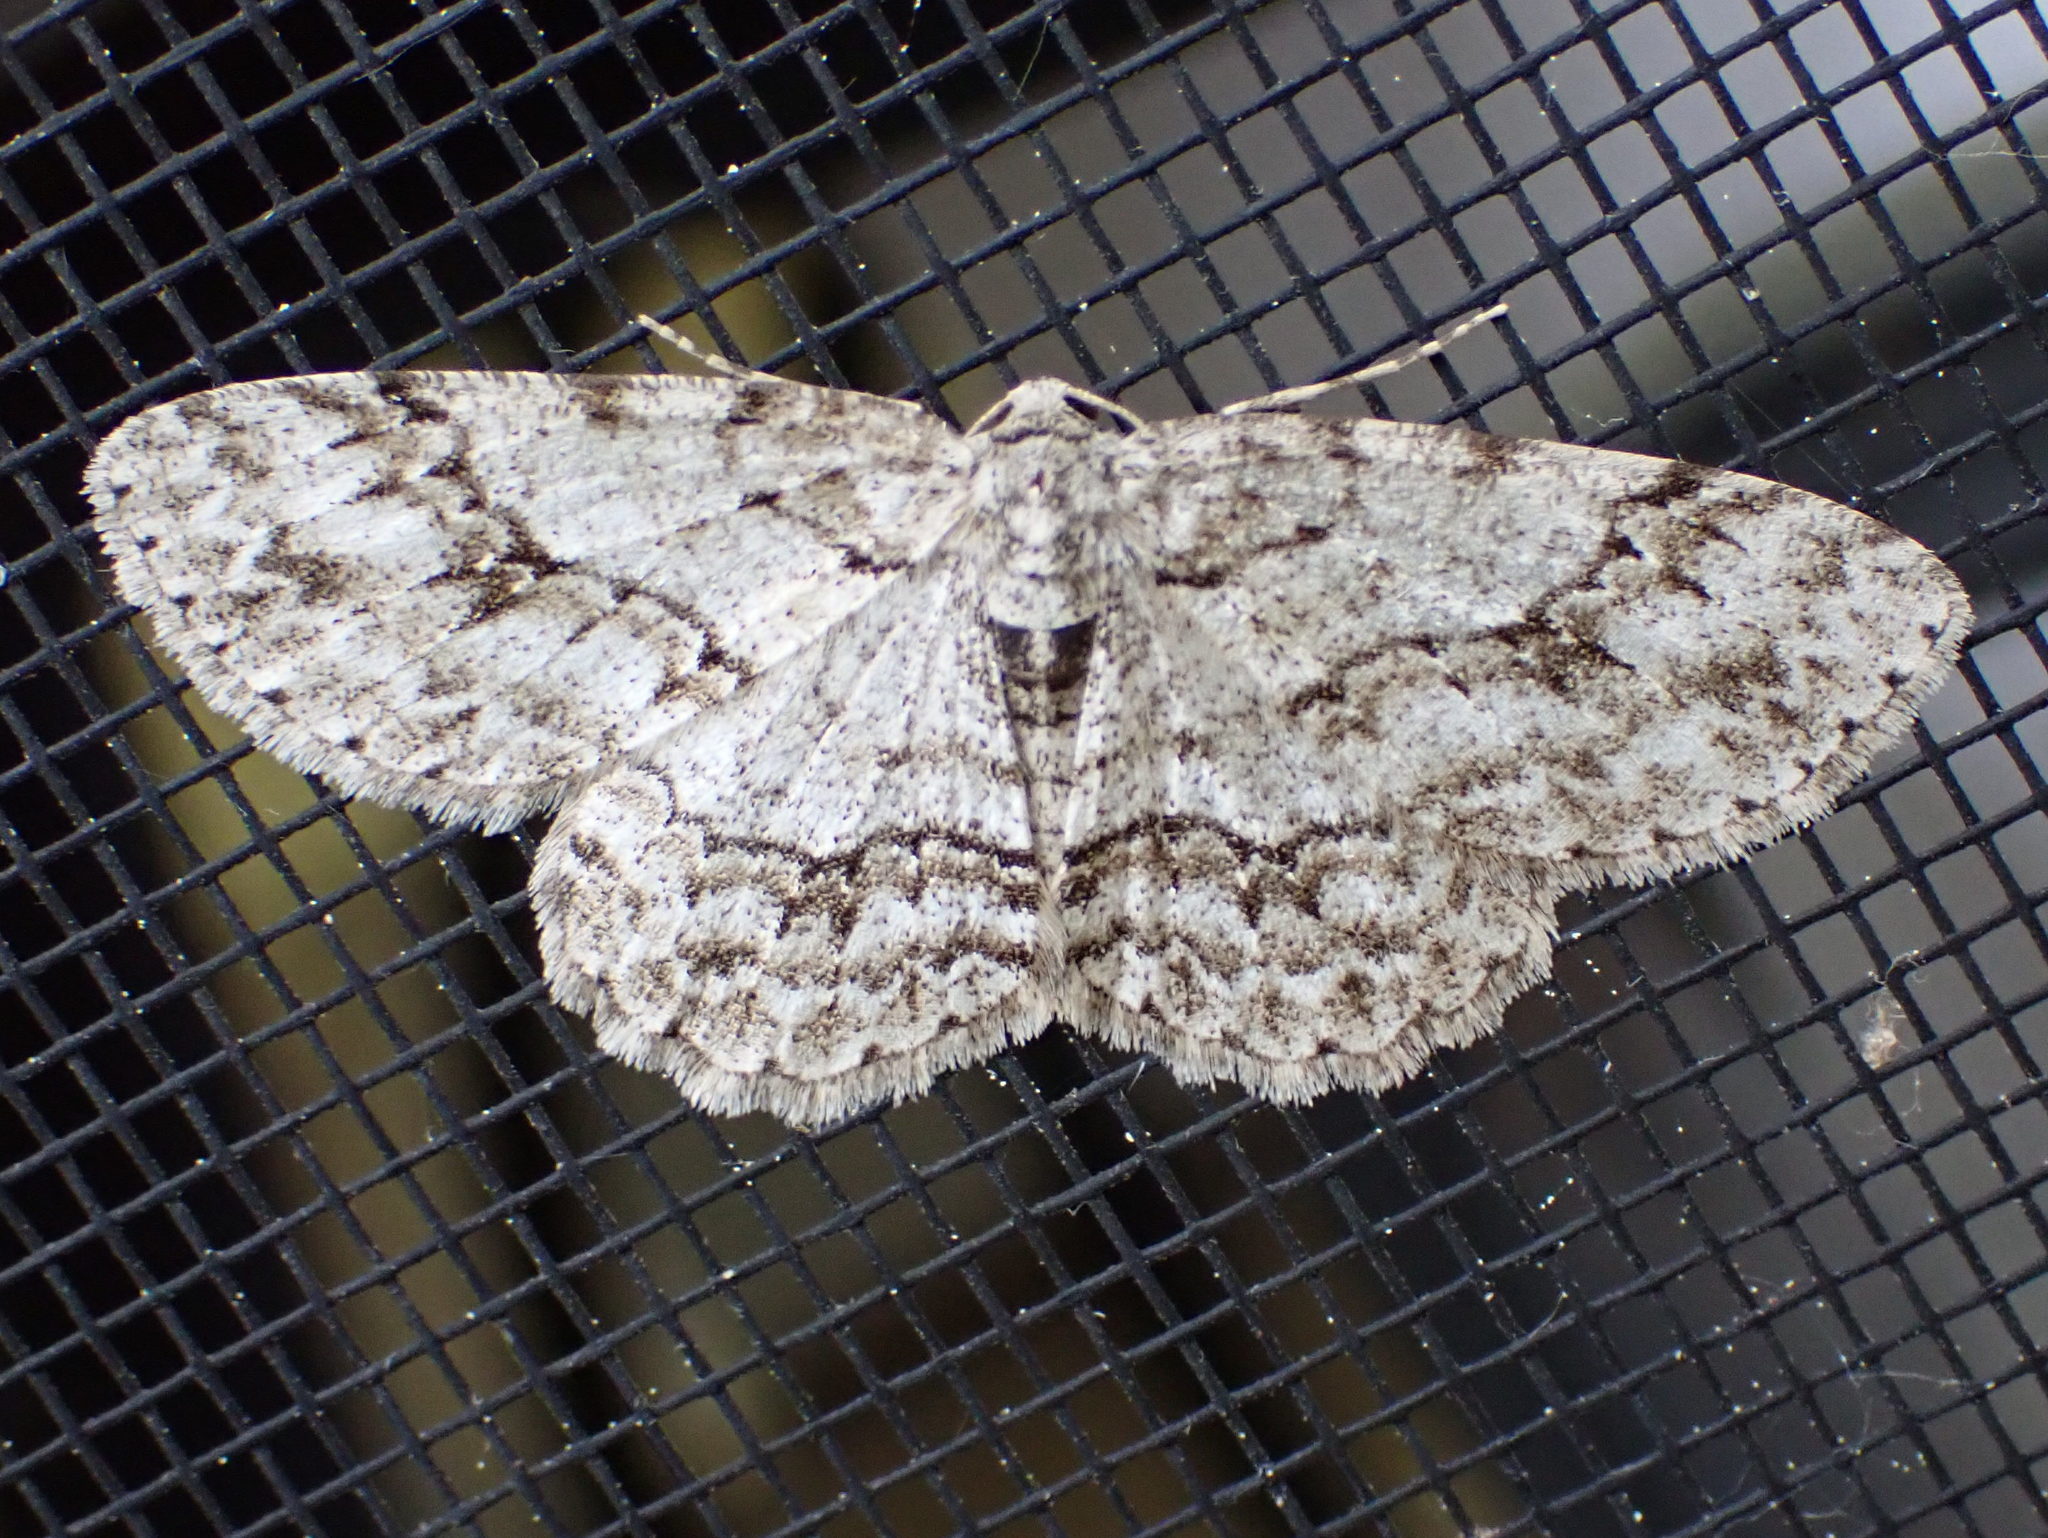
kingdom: Animalia
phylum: Arthropoda
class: Insecta
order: Lepidoptera
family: Geometridae
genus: Ectropis
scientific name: Ectropis crepuscularia
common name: Engrailed
